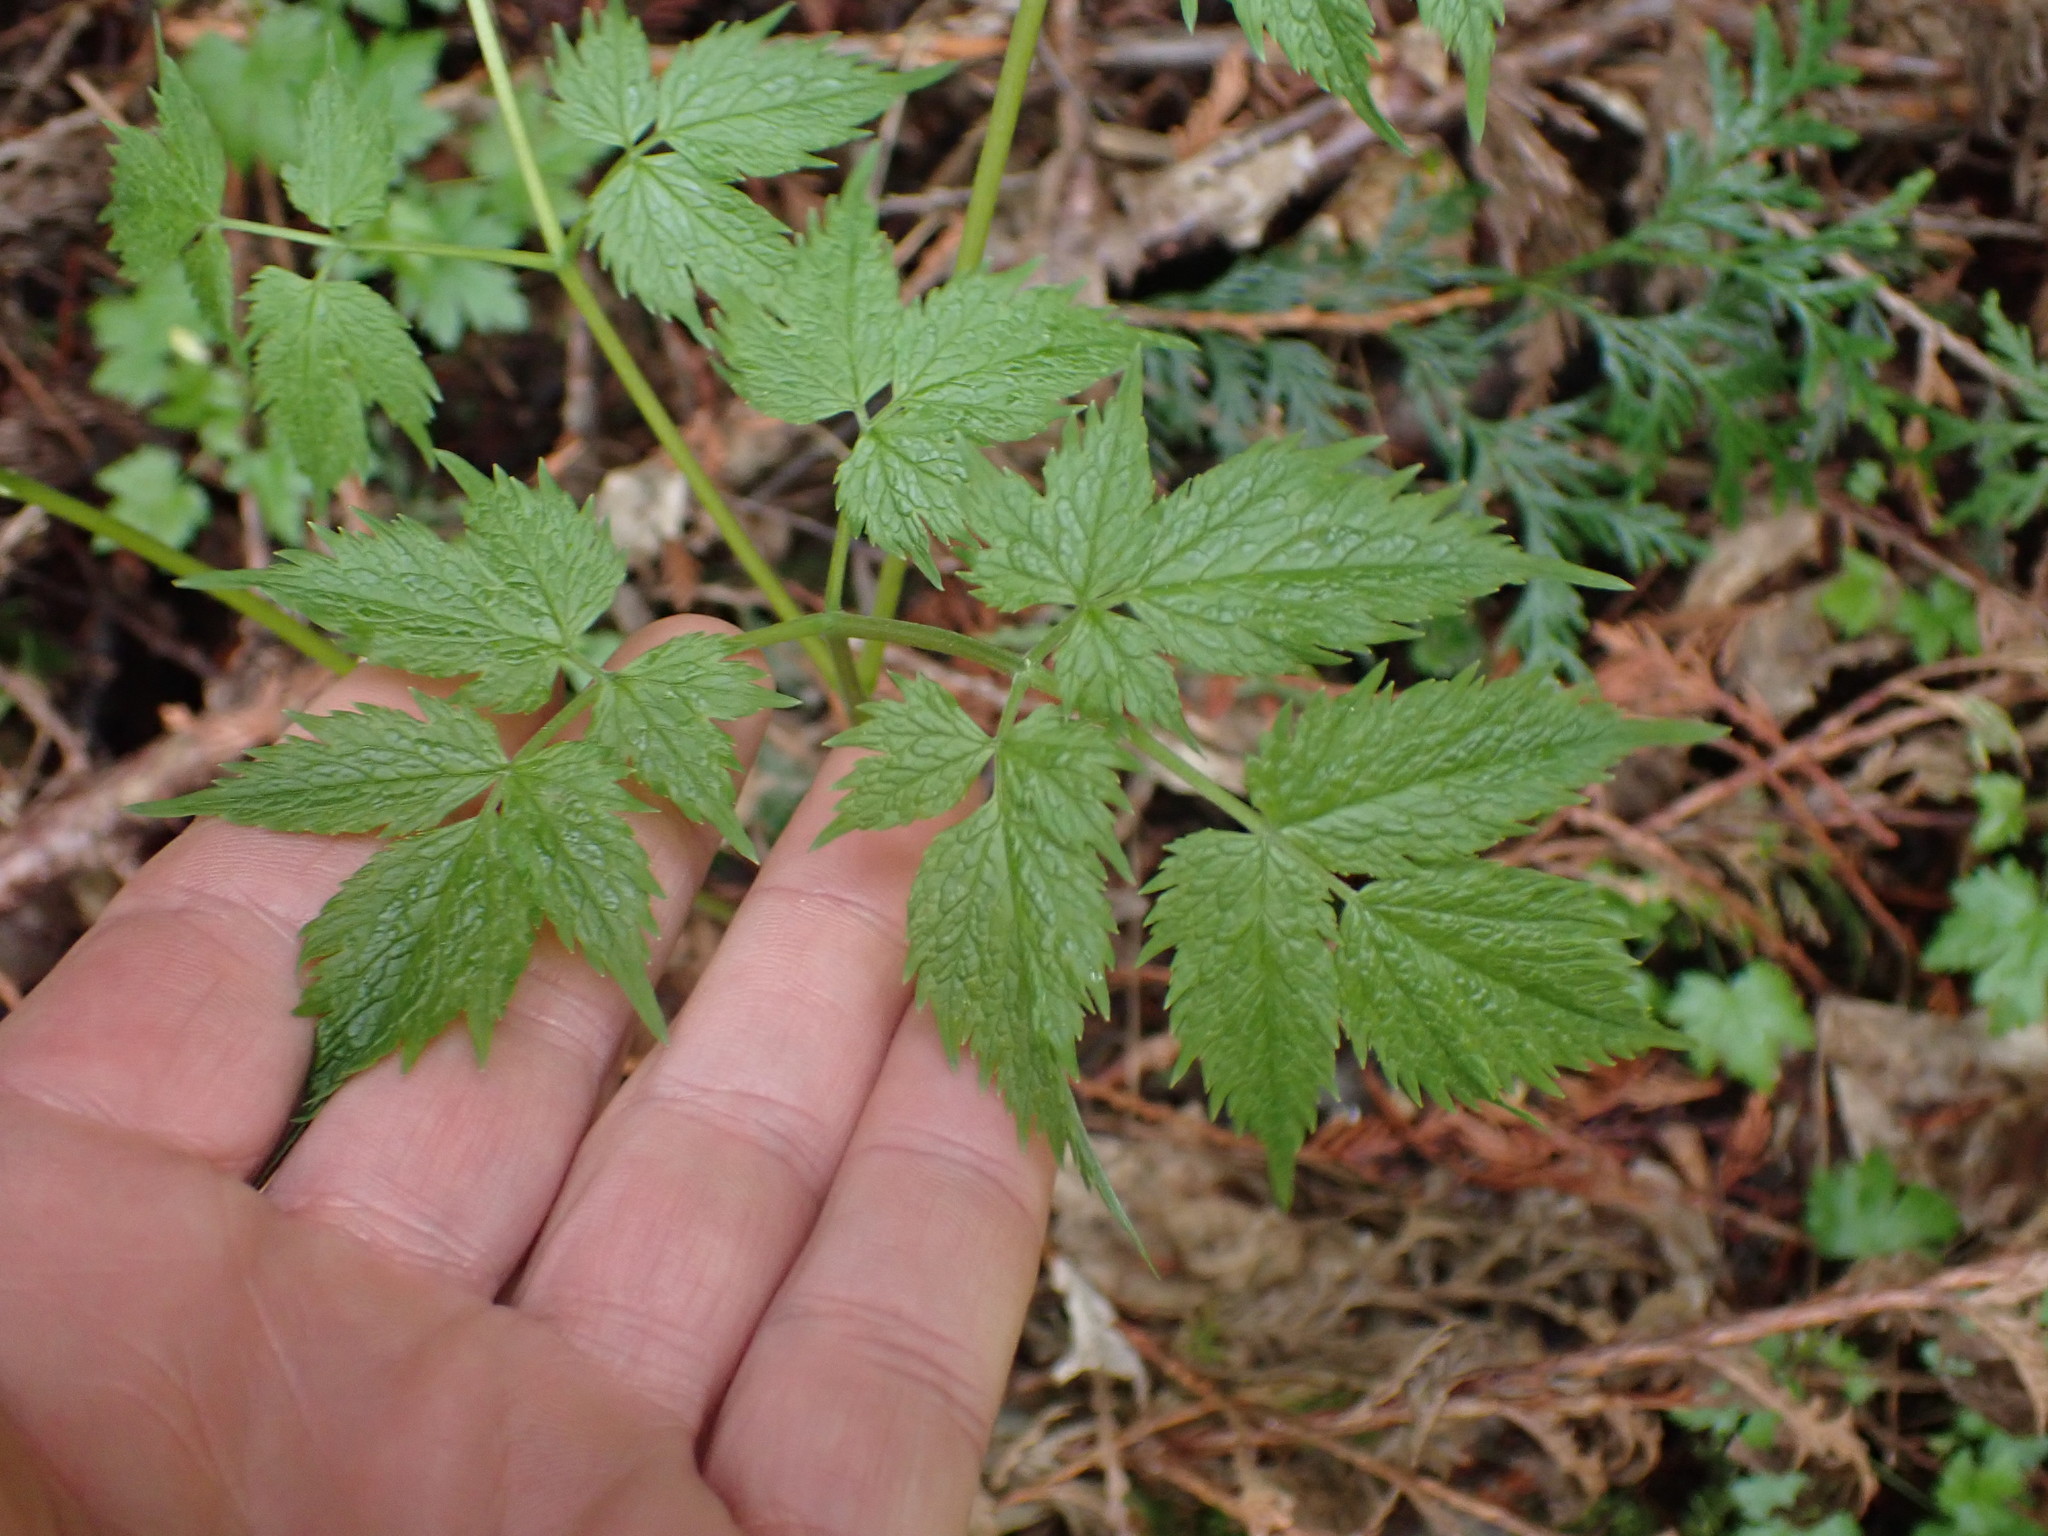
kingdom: Plantae
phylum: Tracheophyta
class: Magnoliopsida
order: Ranunculales
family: Ranunculaceae
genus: Actaea
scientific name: Actaea rubra
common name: Red baneberry
